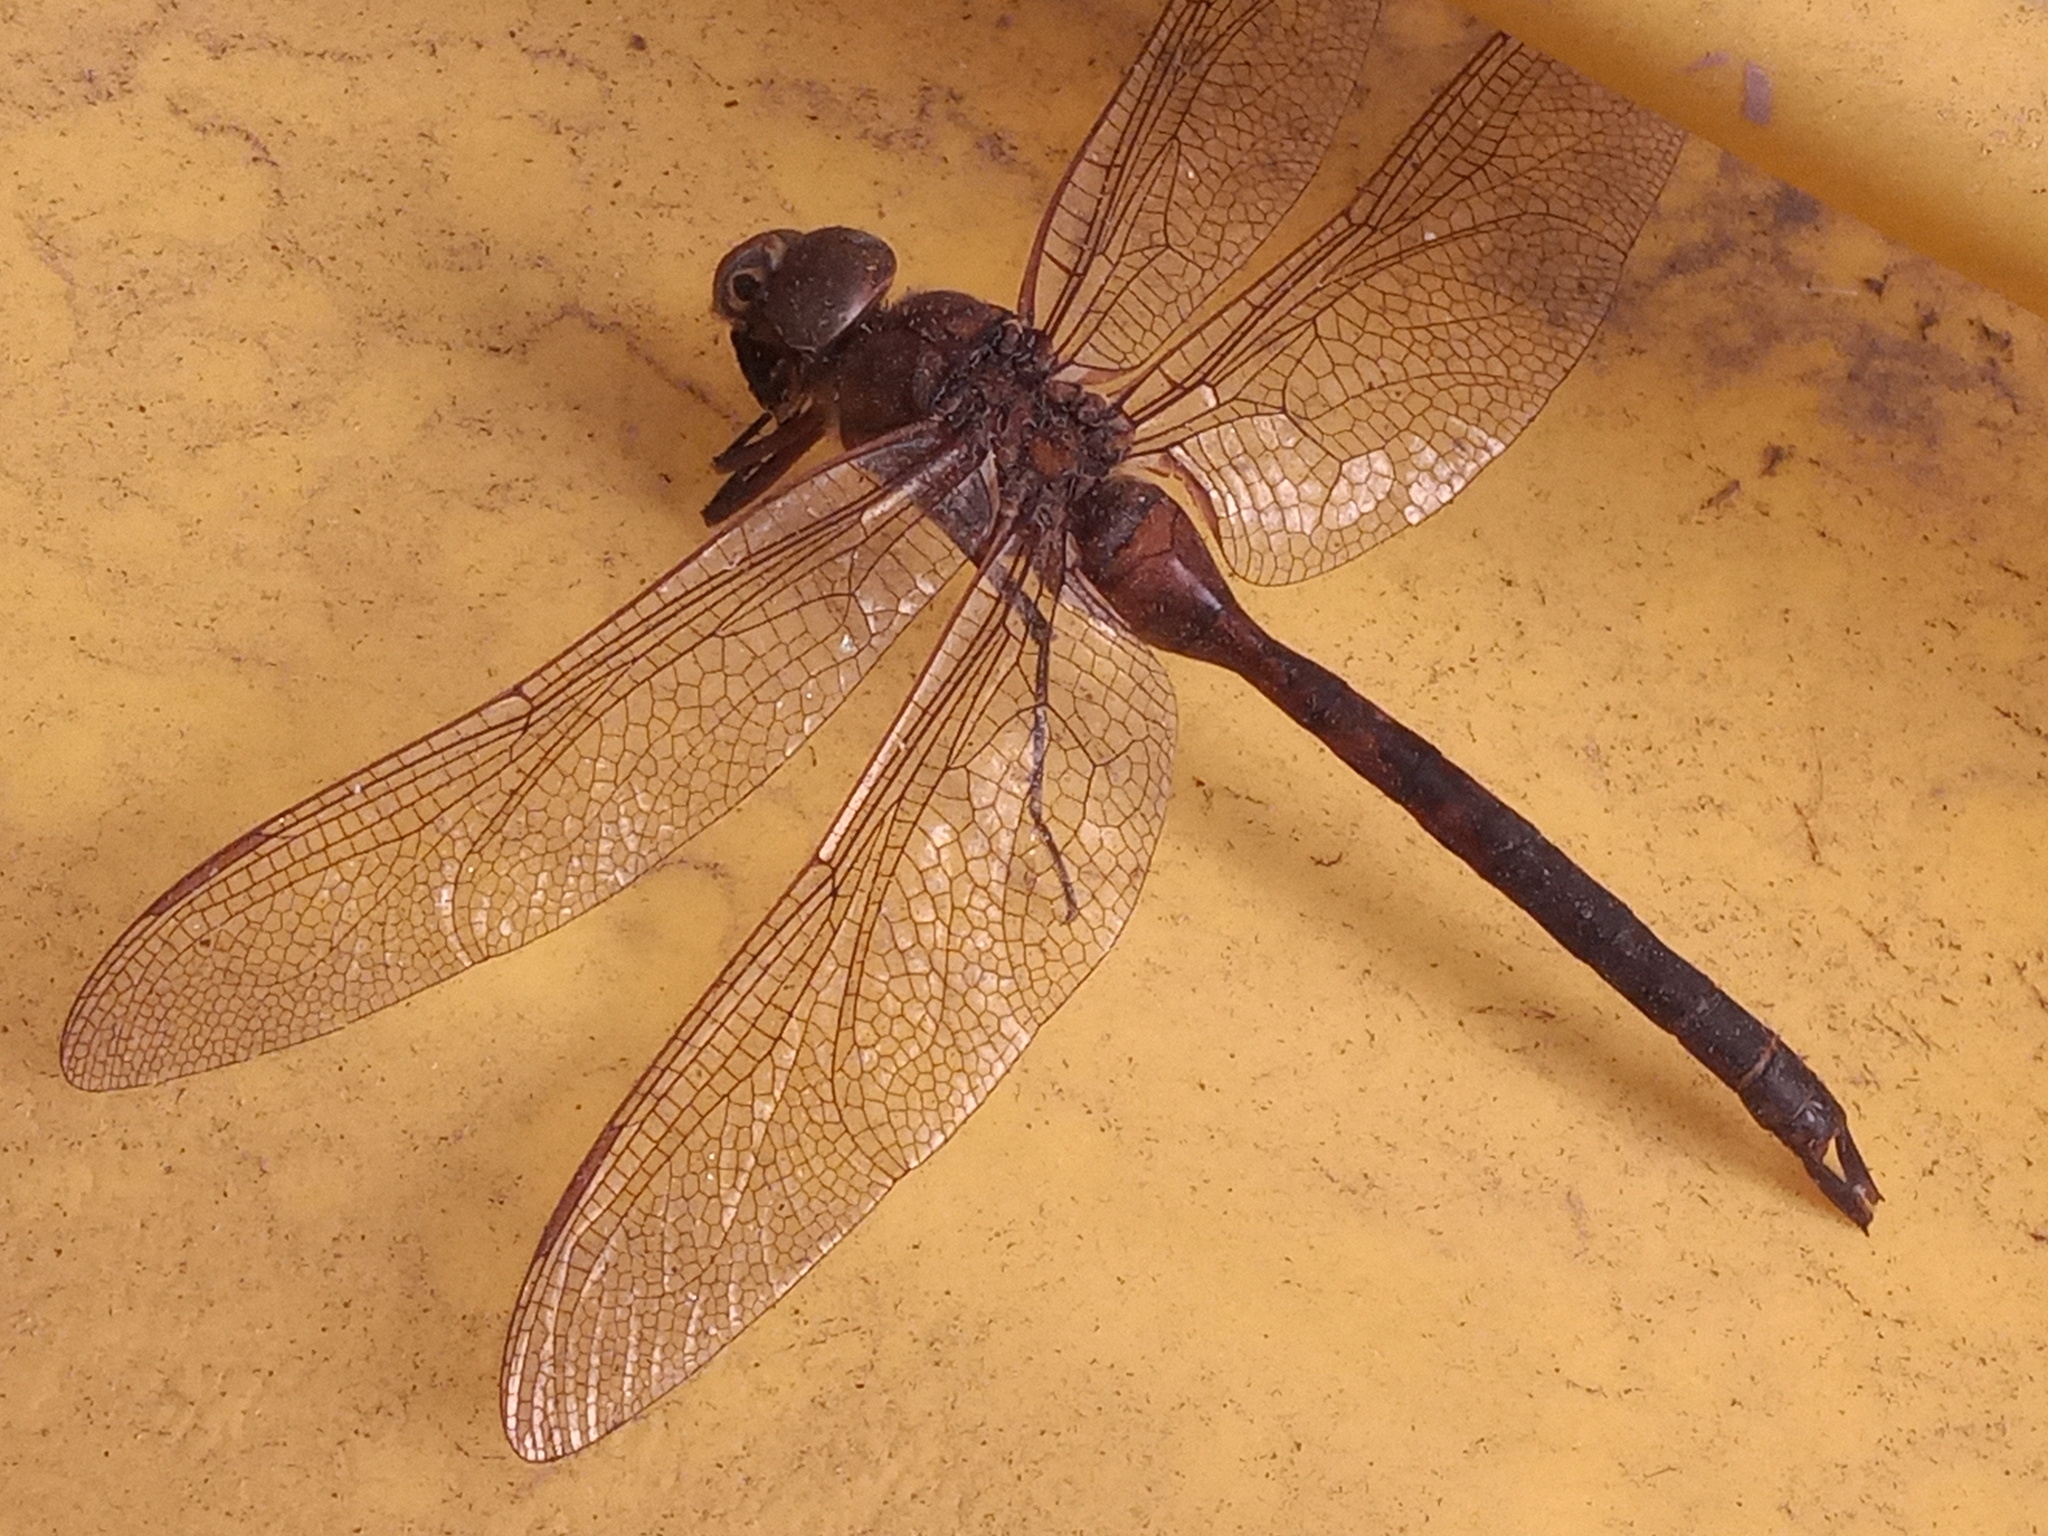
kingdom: Animalia
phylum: Arthropoda
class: Insecta
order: Odonata
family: Aeshnidae
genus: Anax
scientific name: Anax junius
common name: Common green darner
